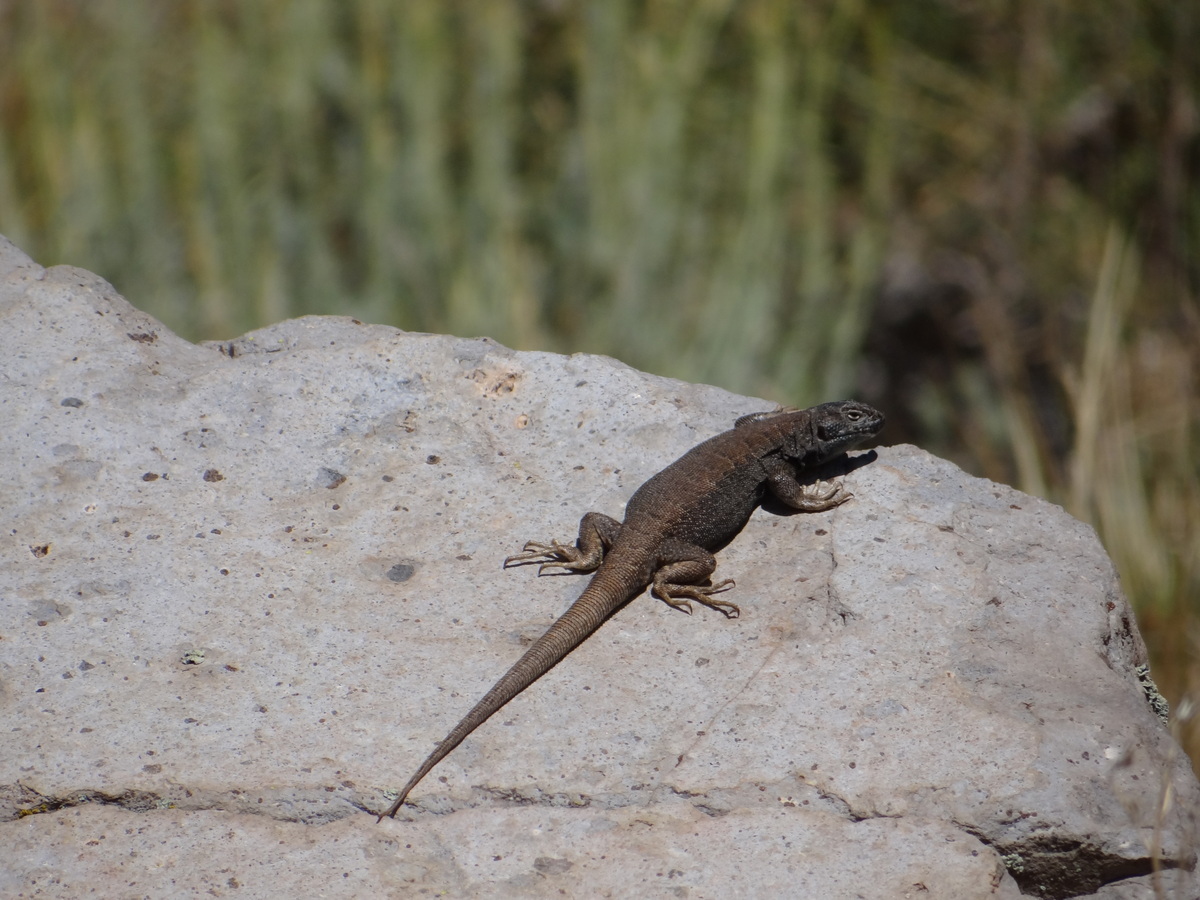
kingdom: Animalia
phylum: Chordata
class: Squamata
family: Liolaemidae
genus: Liolaemus
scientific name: Liolaemus buergeri
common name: Buerger's tree iguana
